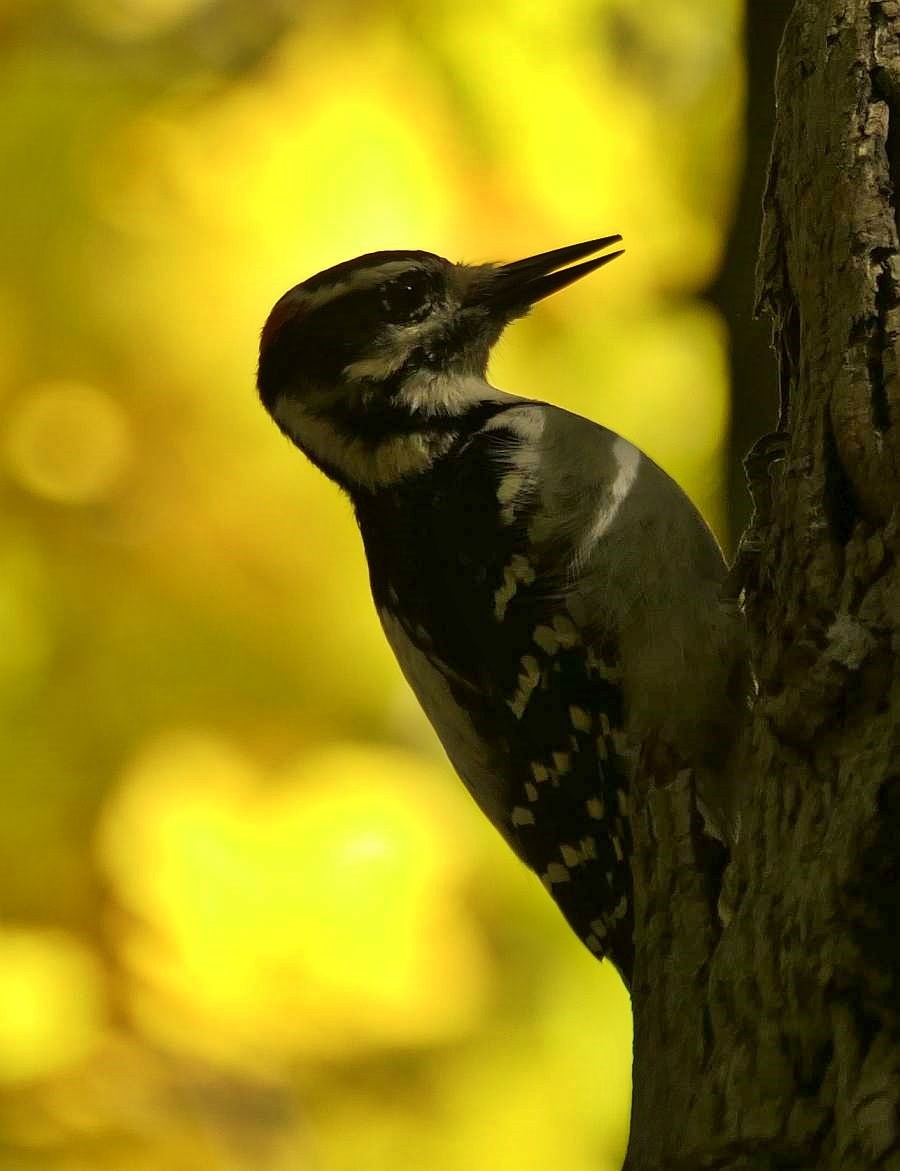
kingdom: Animalia
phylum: Chordata
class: Aves
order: Piciformes
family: Picidae
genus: Leuconotopicus
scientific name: Leuconotopicus villosus
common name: Hairy woodpecker
